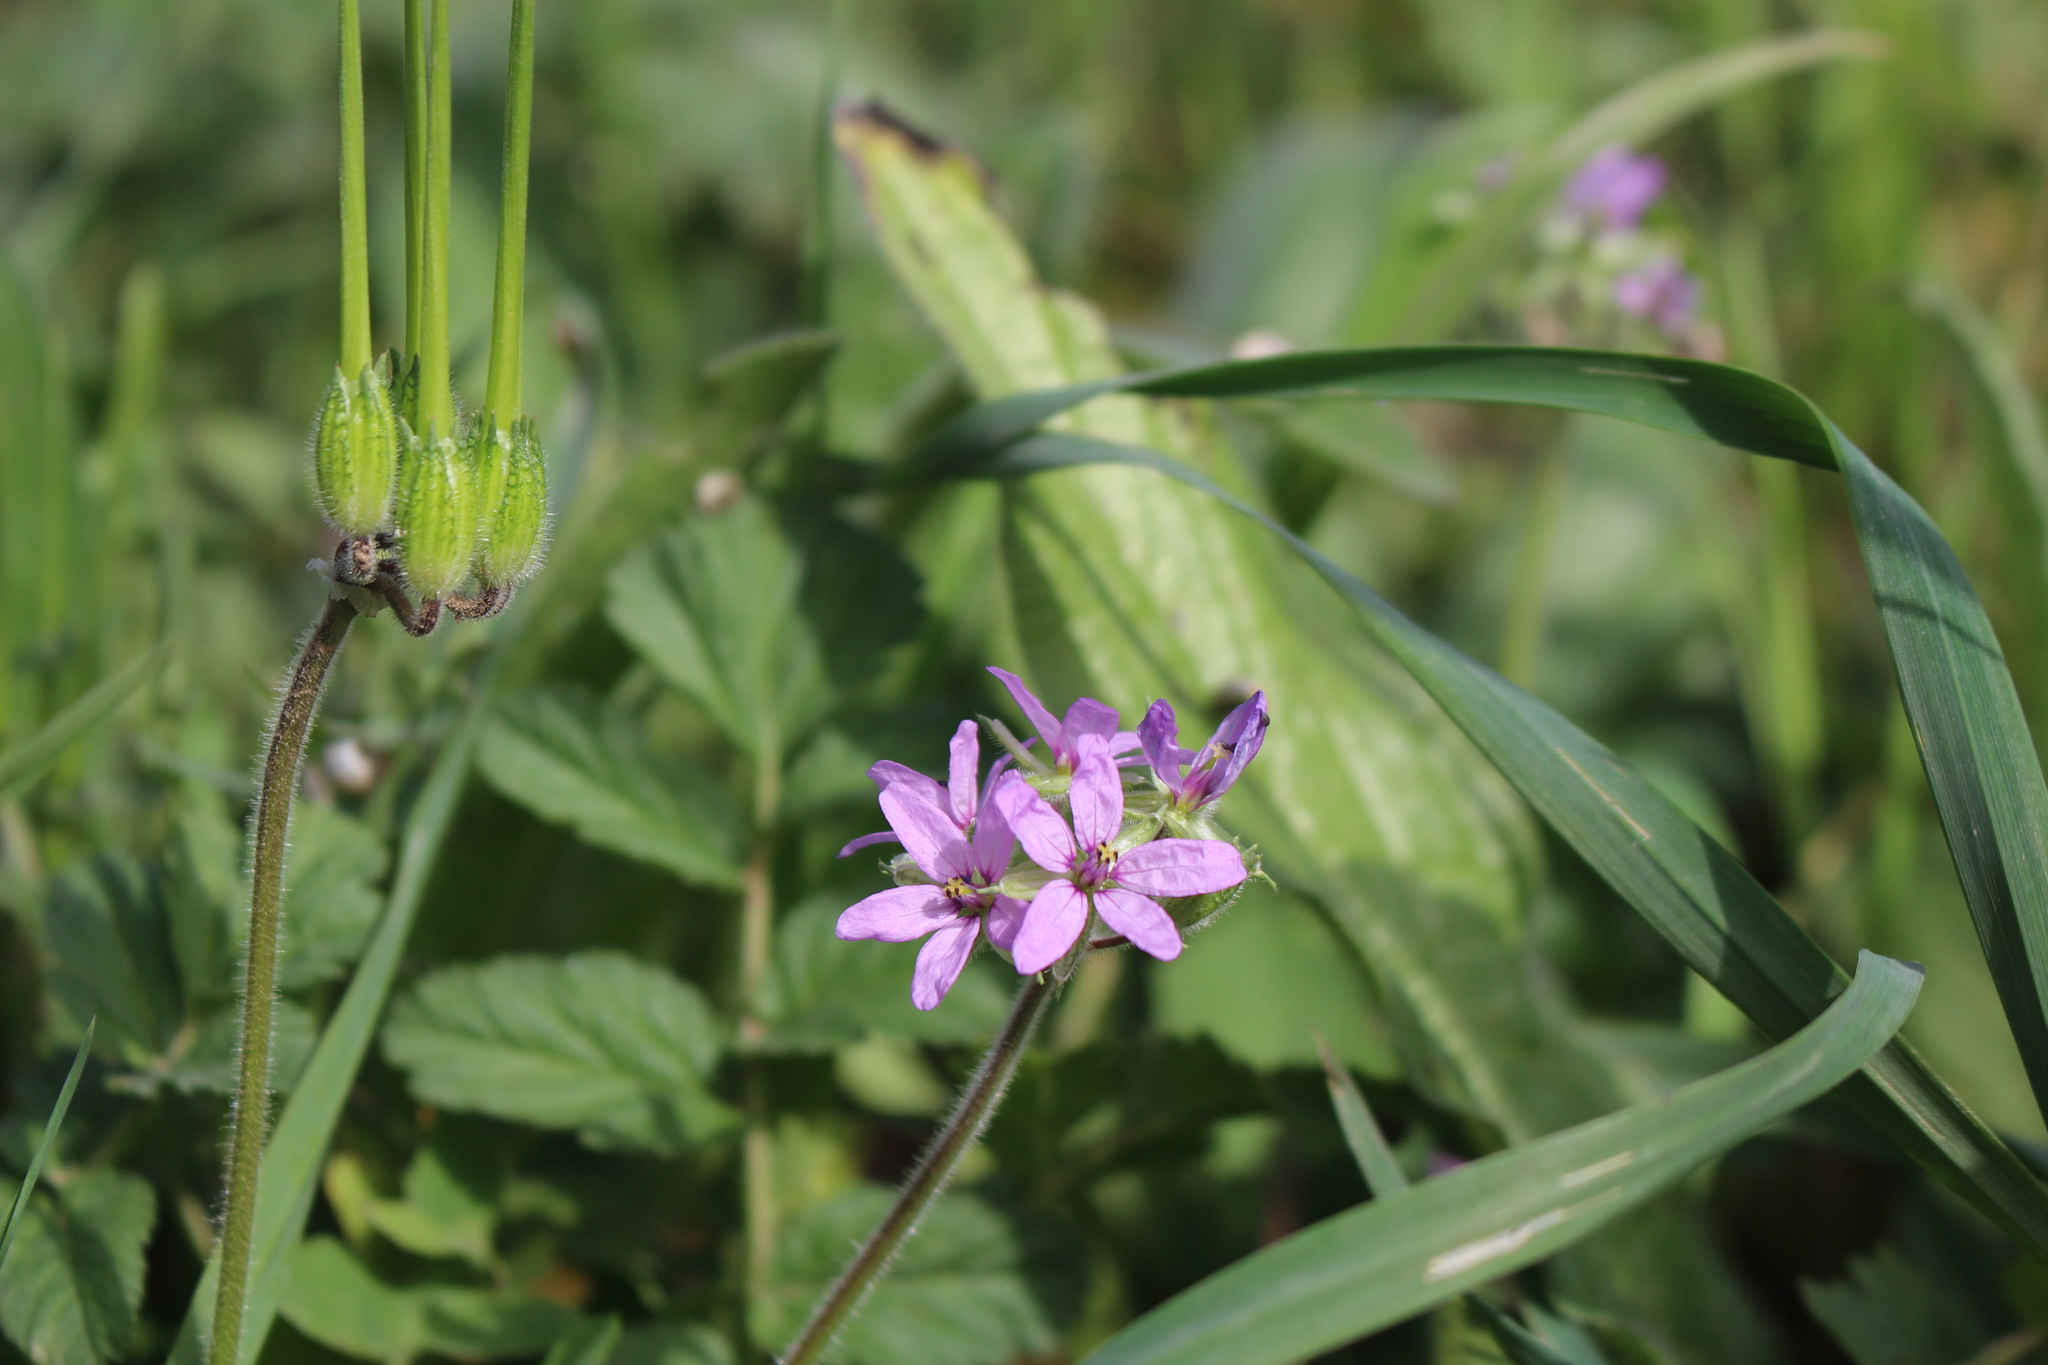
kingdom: Plantae
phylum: Tracheophyta
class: Magnoliopsida
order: Geraniales
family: Geraniaceae
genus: Erodium
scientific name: Erodium moschatum
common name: Musk stork's-bill
